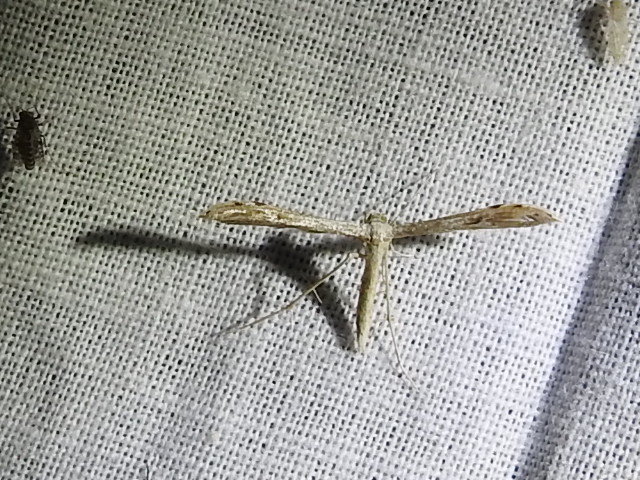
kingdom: Animalia
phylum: Arthropoda
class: Insecta
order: Lepidoptera
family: Pterophoridae
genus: Pselnophorus
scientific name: Pselnophorus belfragei
